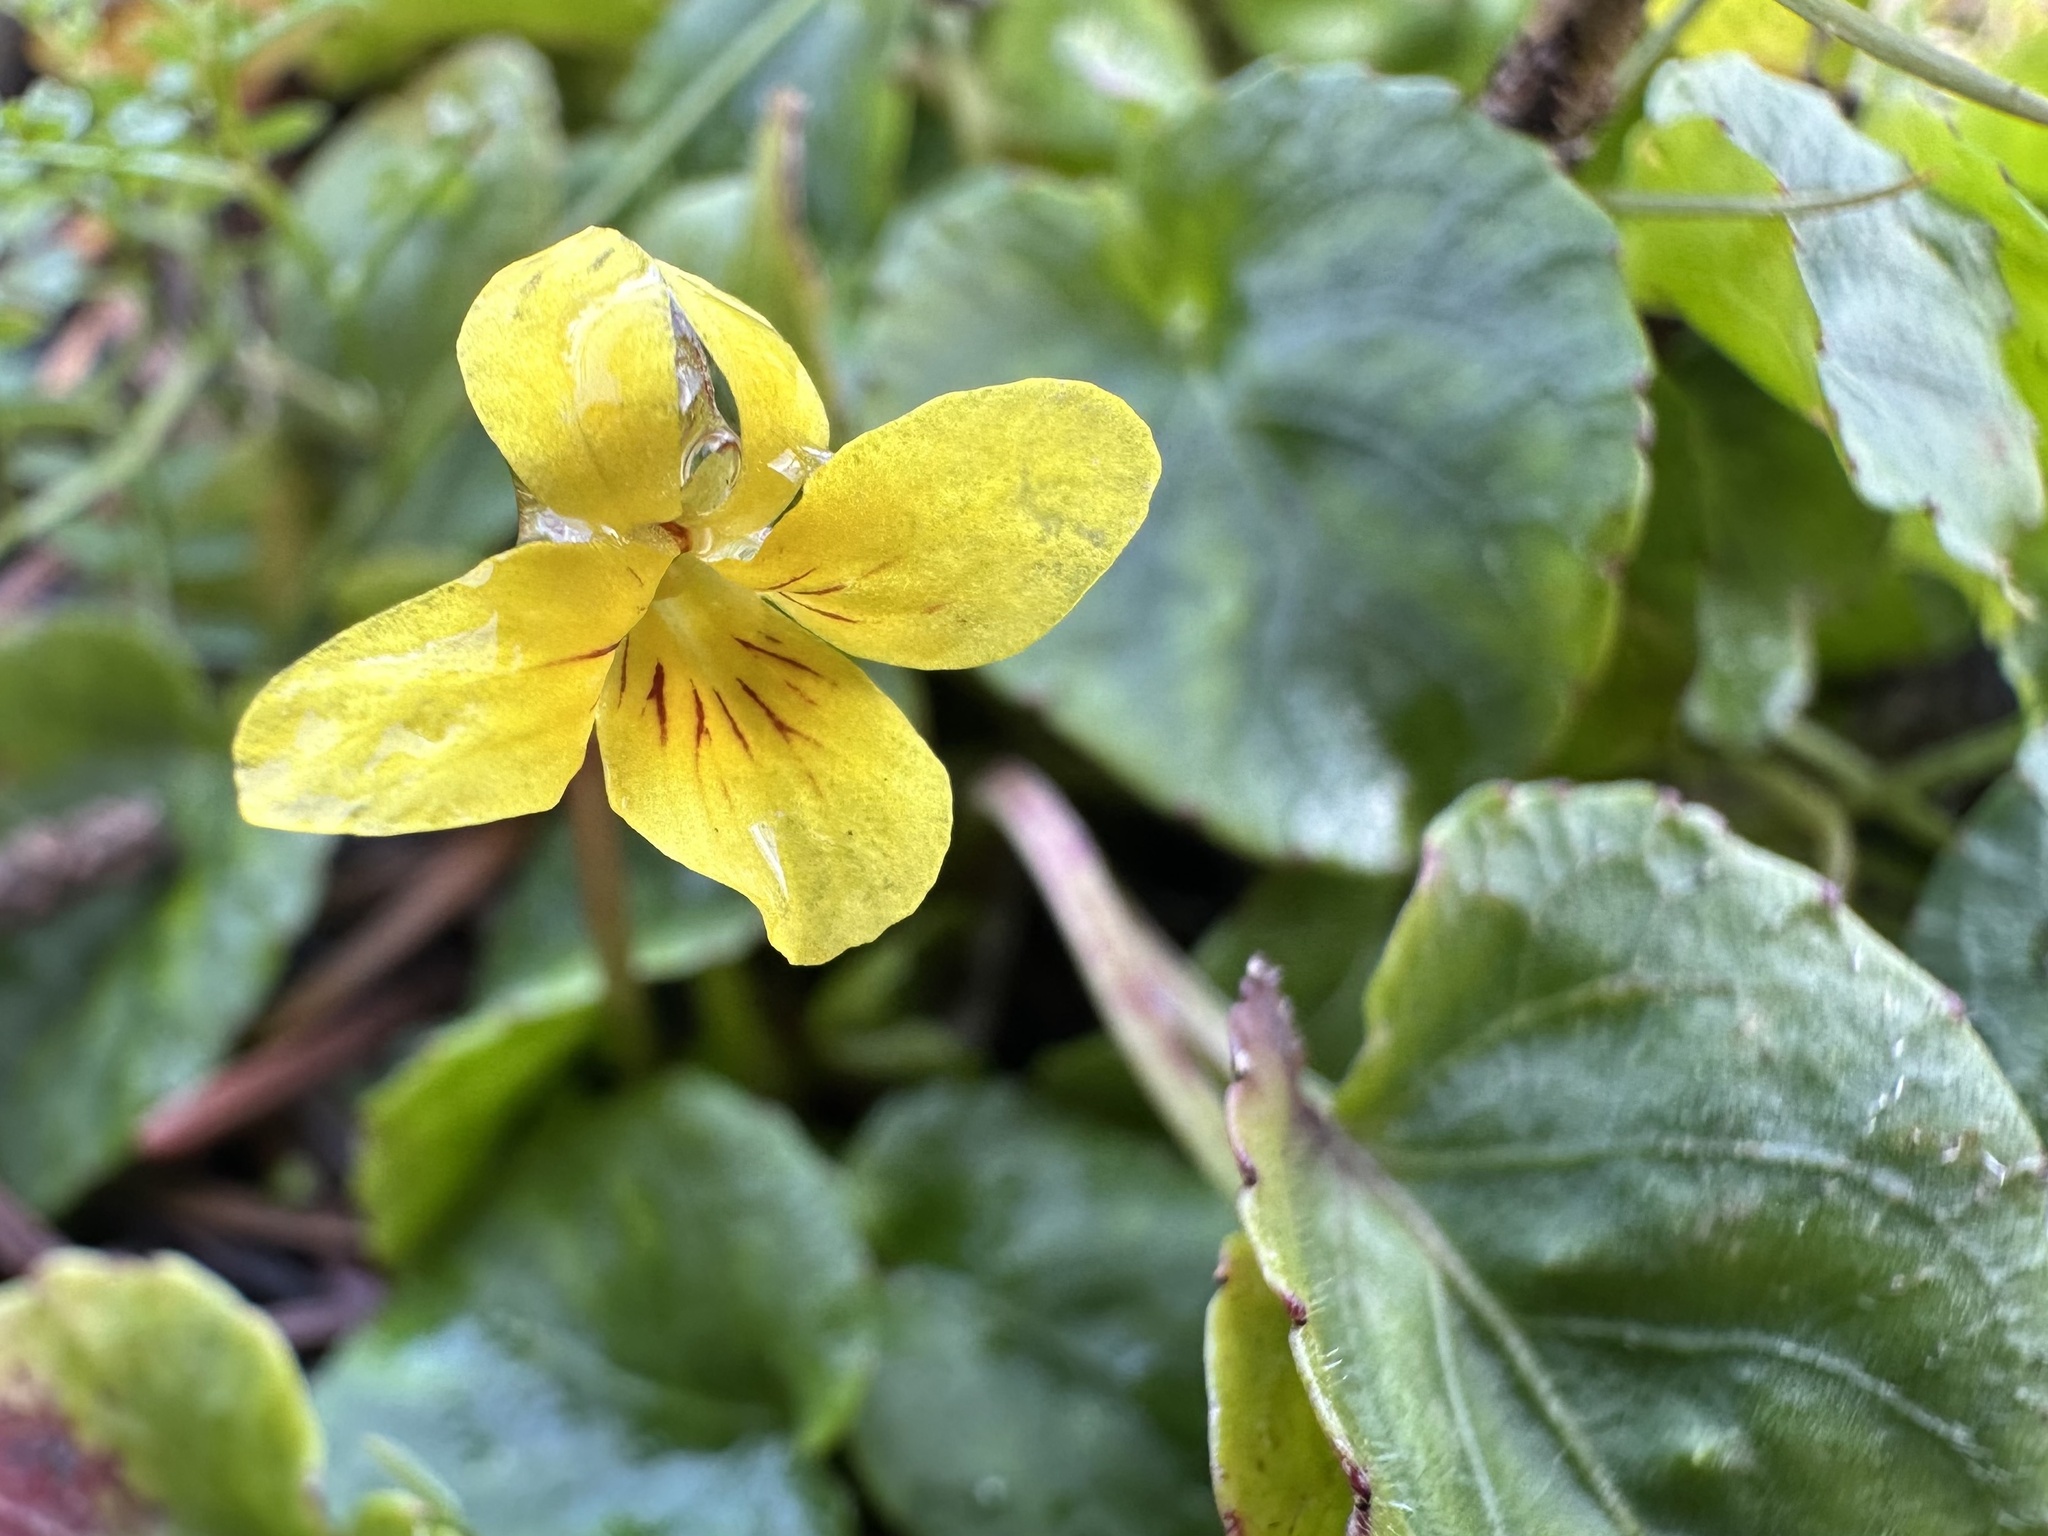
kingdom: Plantae
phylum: Tracheophyta
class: Magnoliopsida
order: Malpighiales
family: Violaceae
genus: Viola
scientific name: Viola sempervirens
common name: Evergreen violet
